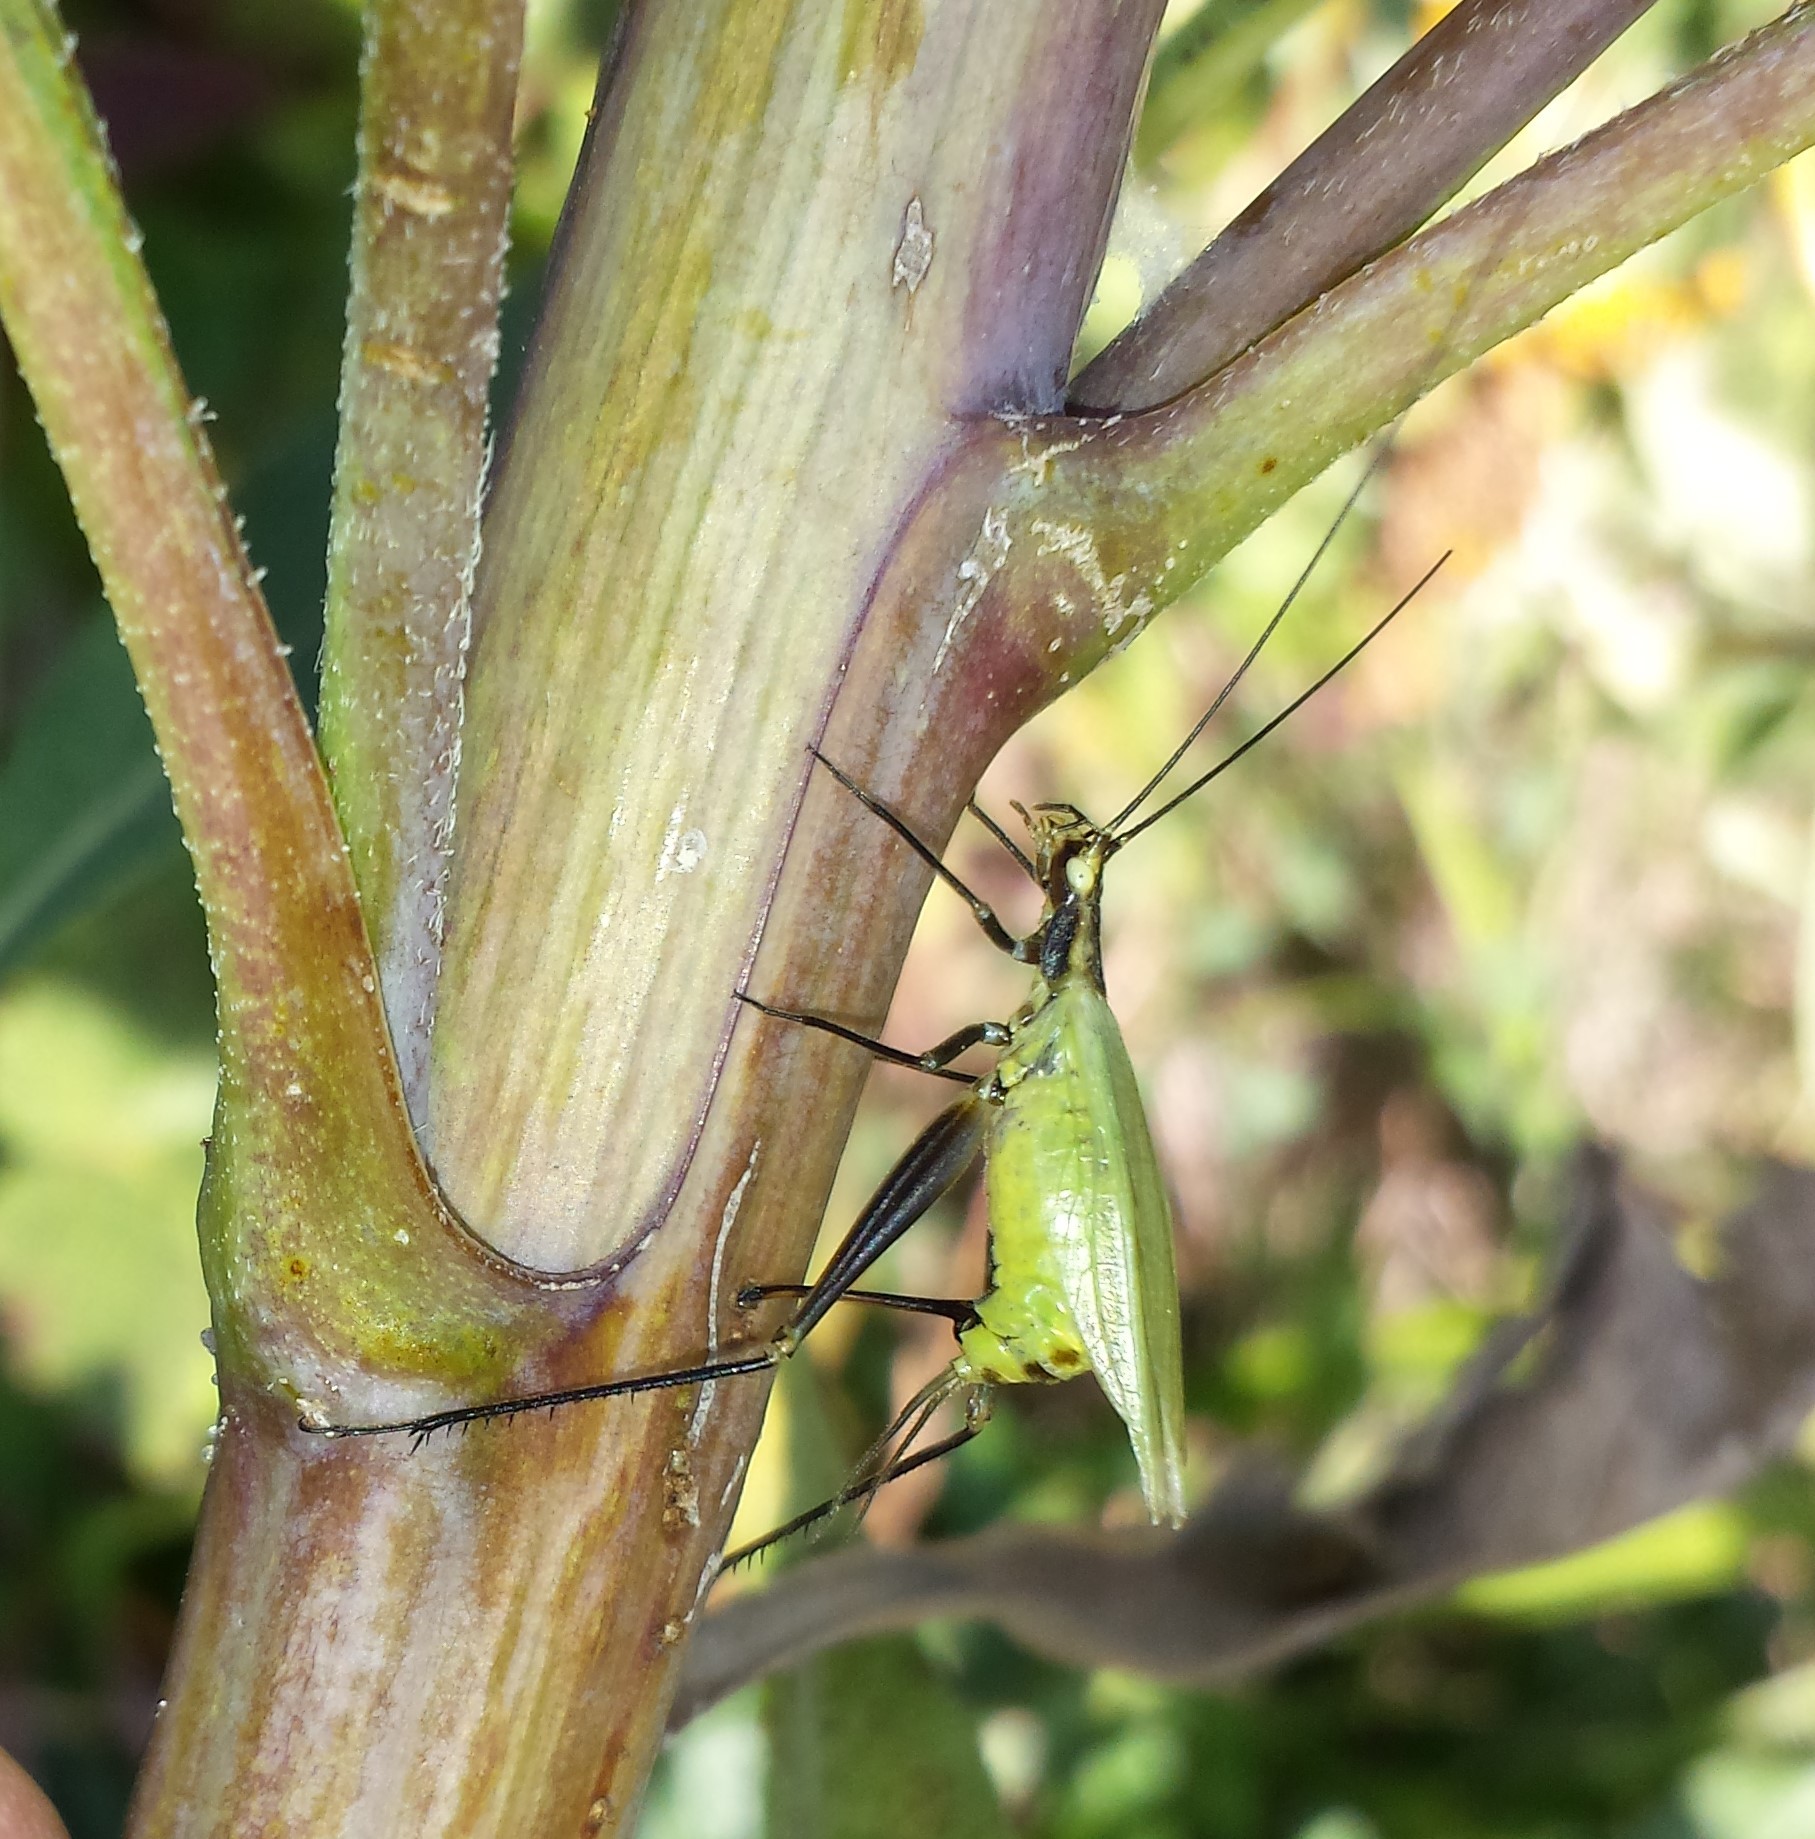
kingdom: Animalia
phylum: Arthropoda
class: Insecta
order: Orthoptera
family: Gryllidae
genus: Oecanthus
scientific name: Oecanthus forbesi
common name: Forbes’s tree cricket
